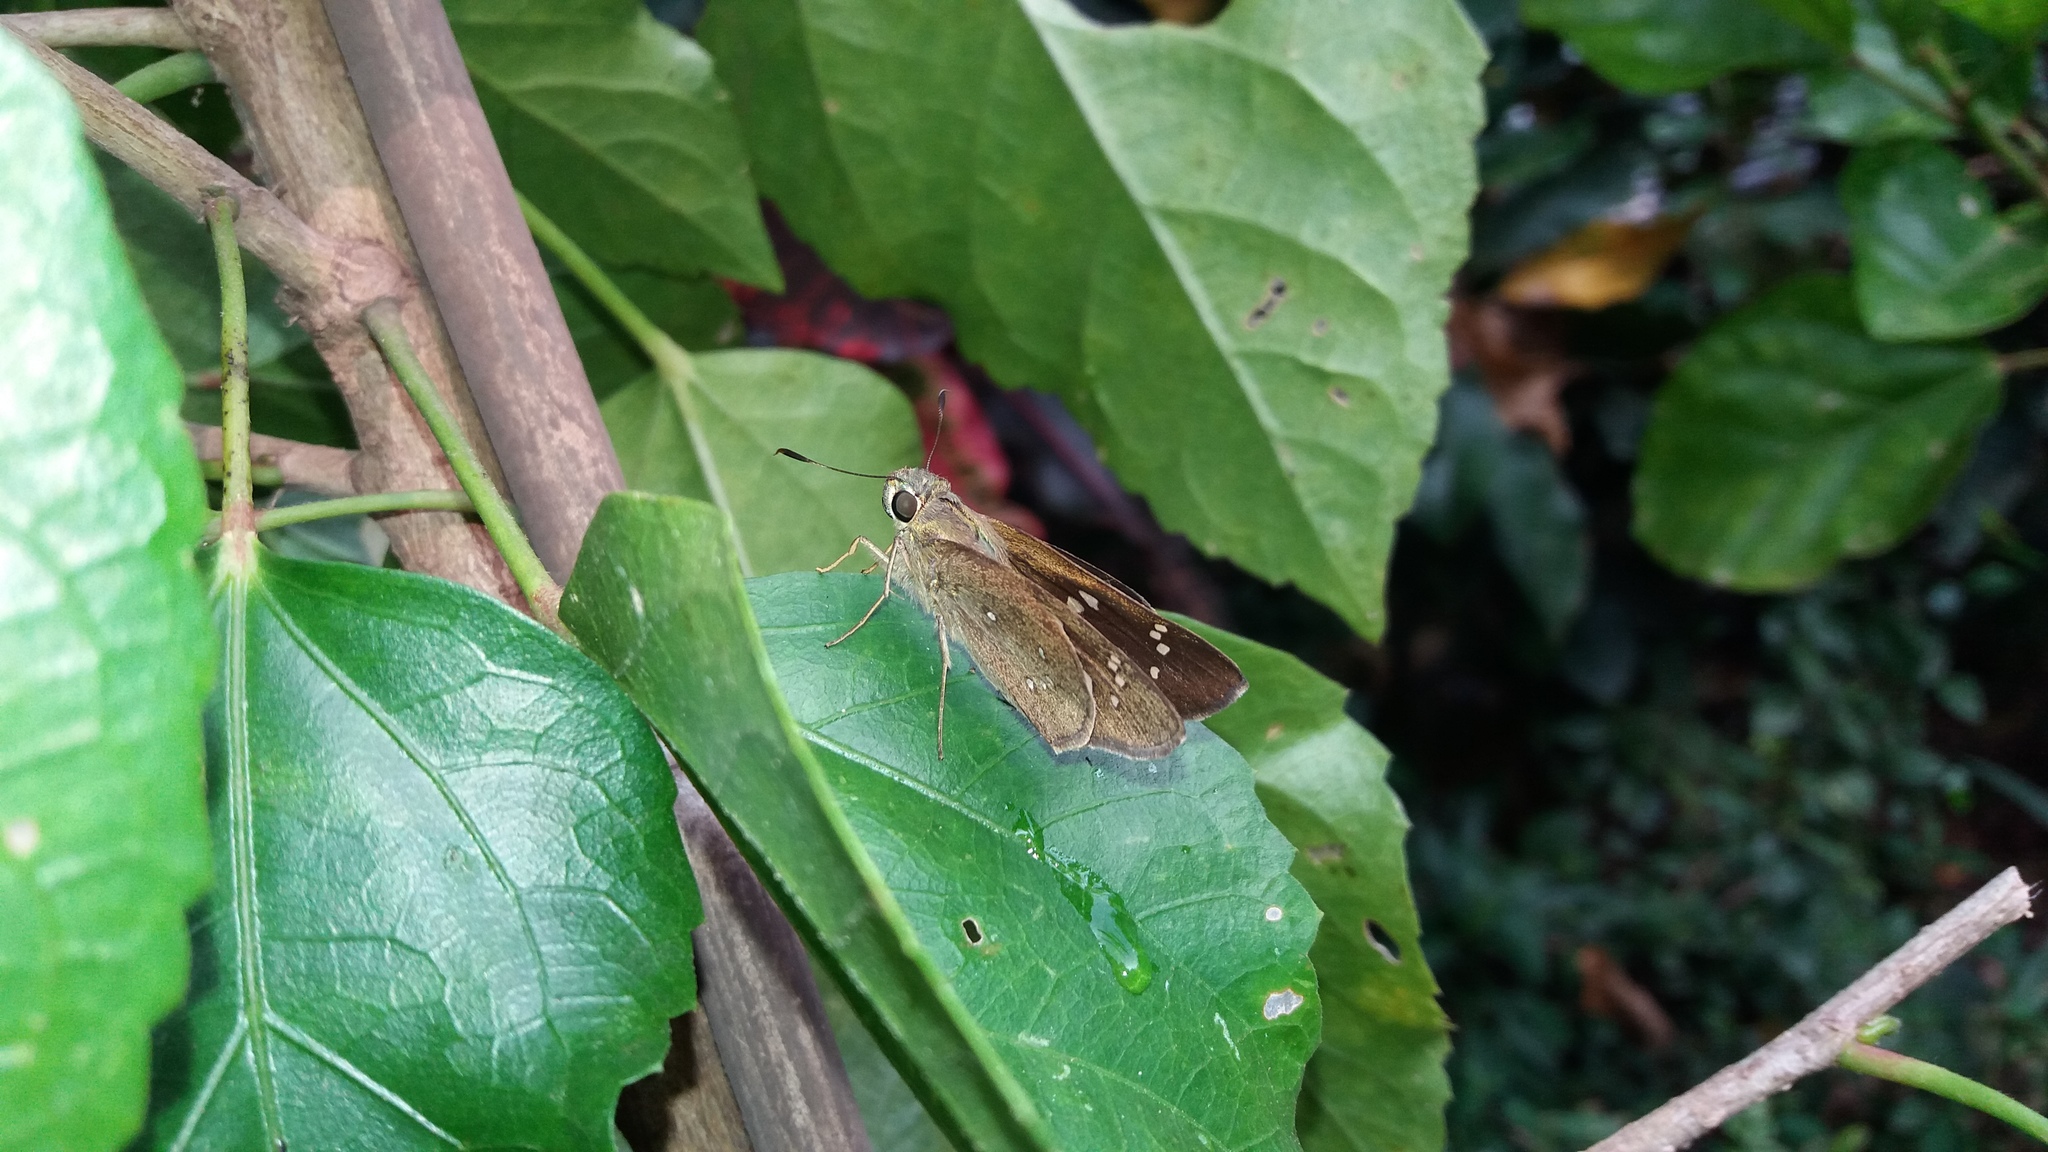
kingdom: Animalia
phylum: Arthropoda
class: Insecta
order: Lepidoptera
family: Hesperiidae
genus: Pelopidas
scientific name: Pelopidas mathias
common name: Black-branded swift
